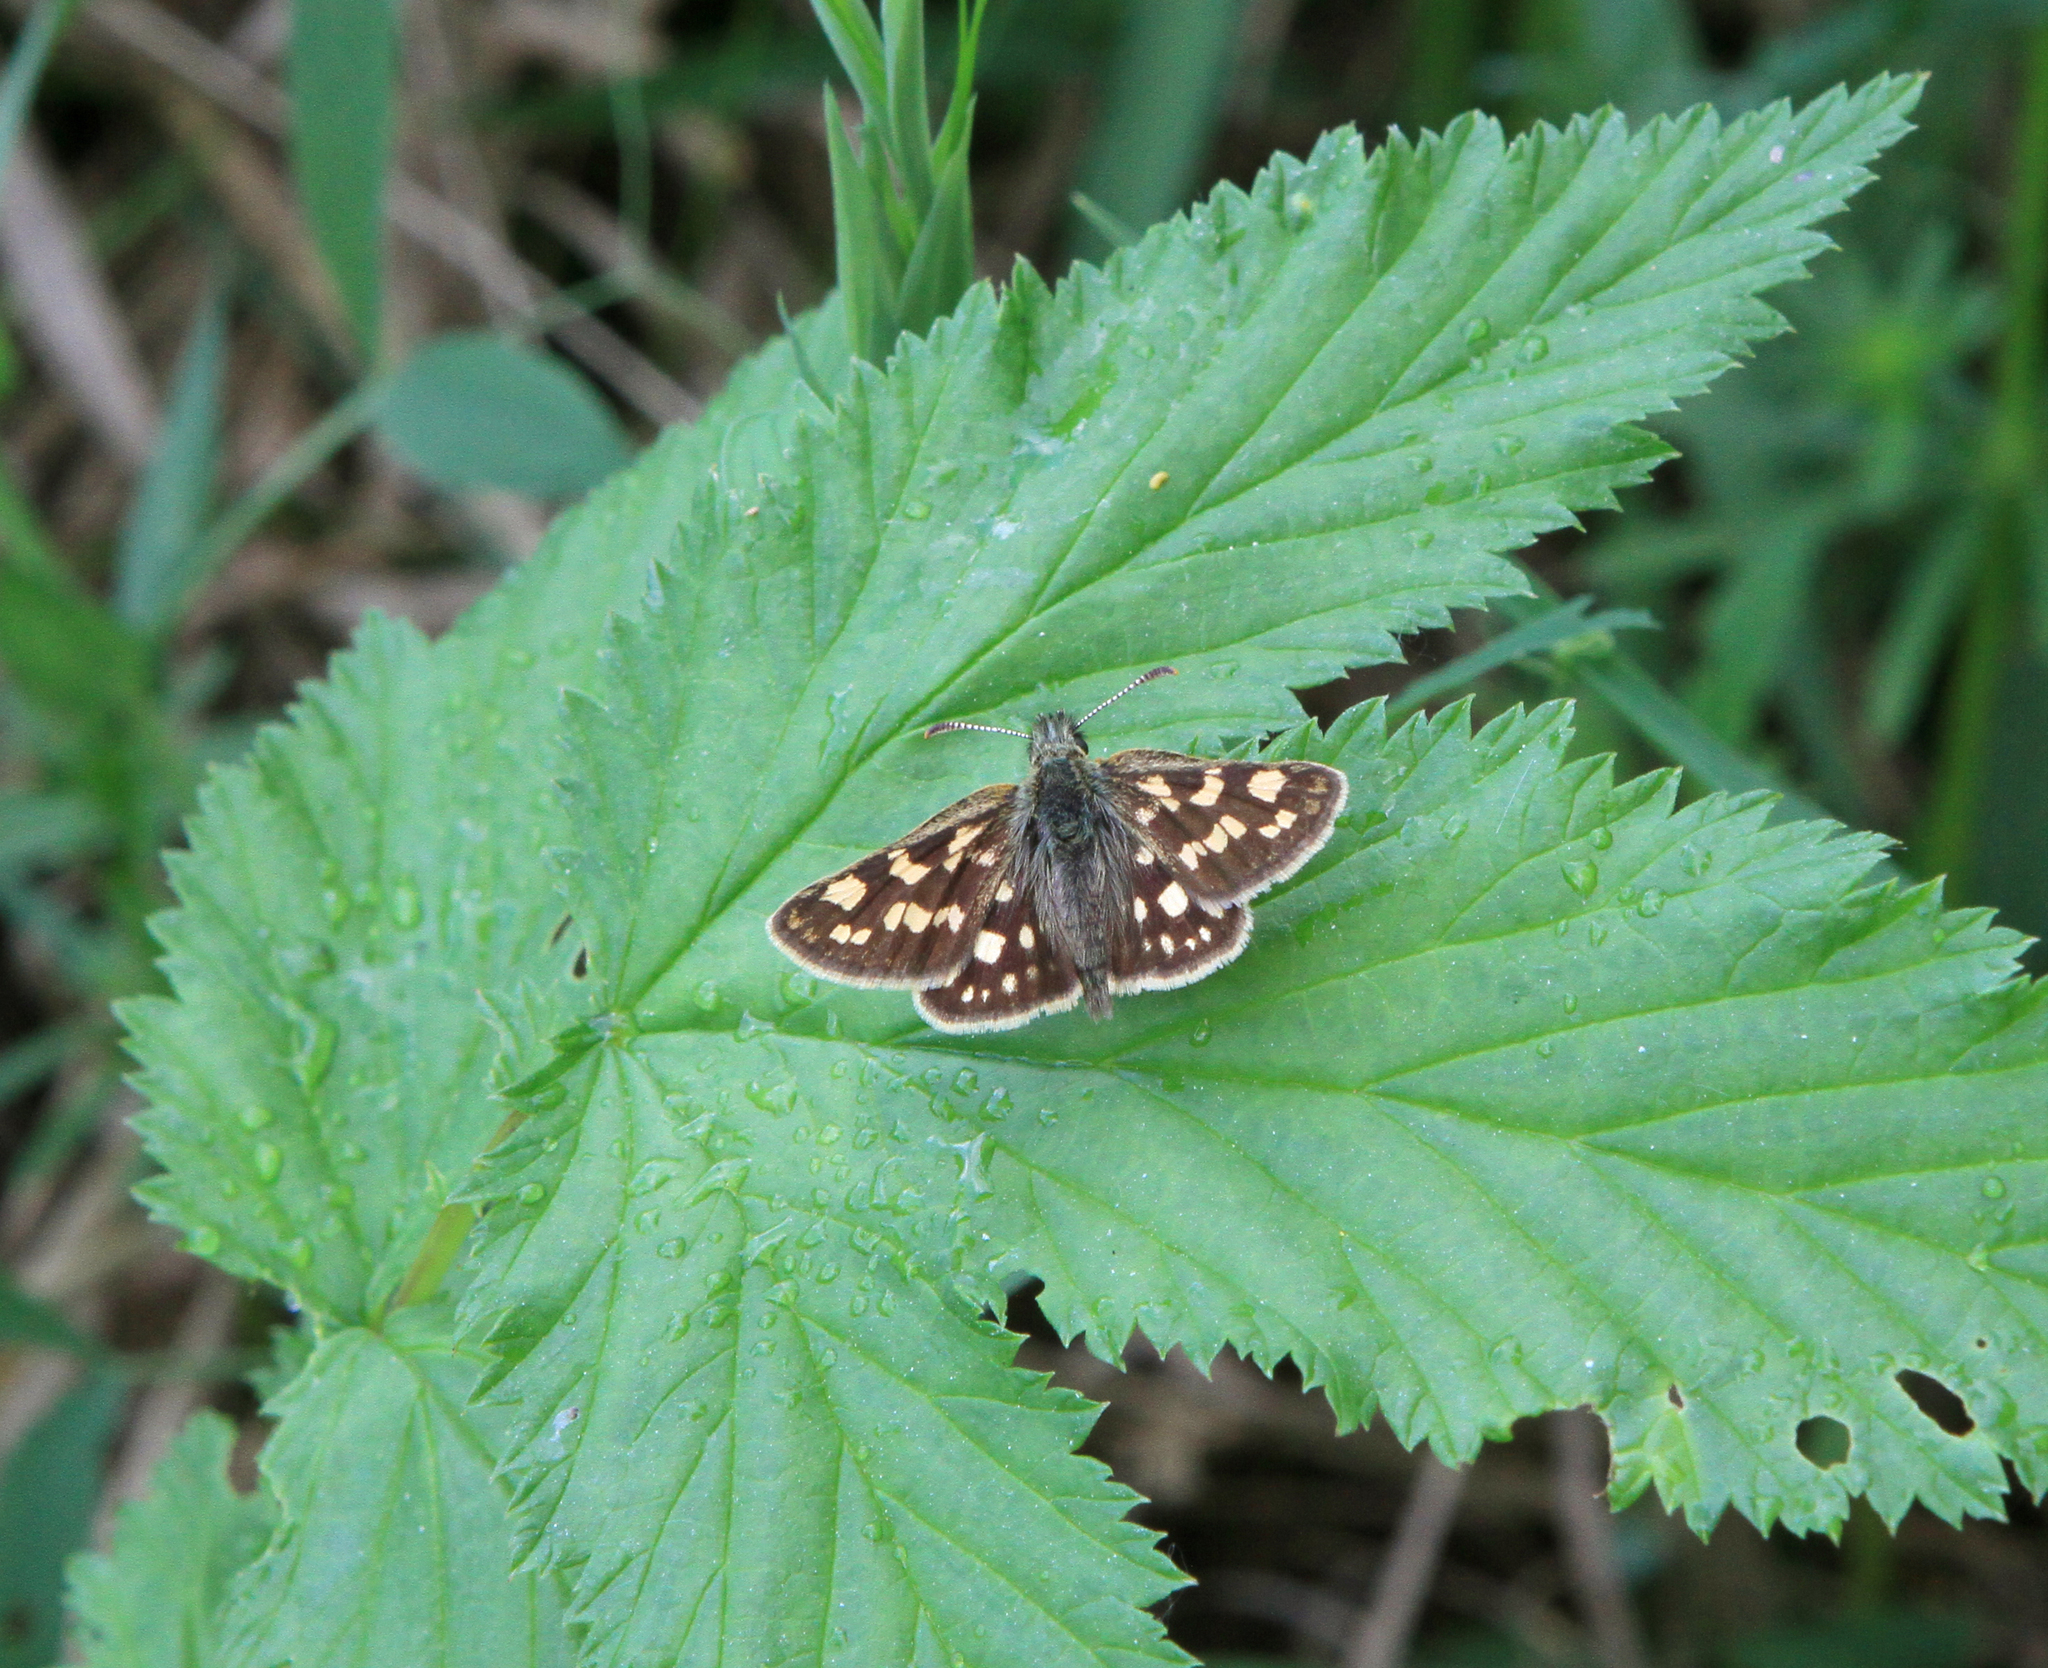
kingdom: Animalia
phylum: Arthropoda
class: Insecta
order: Lepidoptera
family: Hesperiidae
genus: Carterocephalus
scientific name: Carterocephalus palaemon
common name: Chequered skipper
